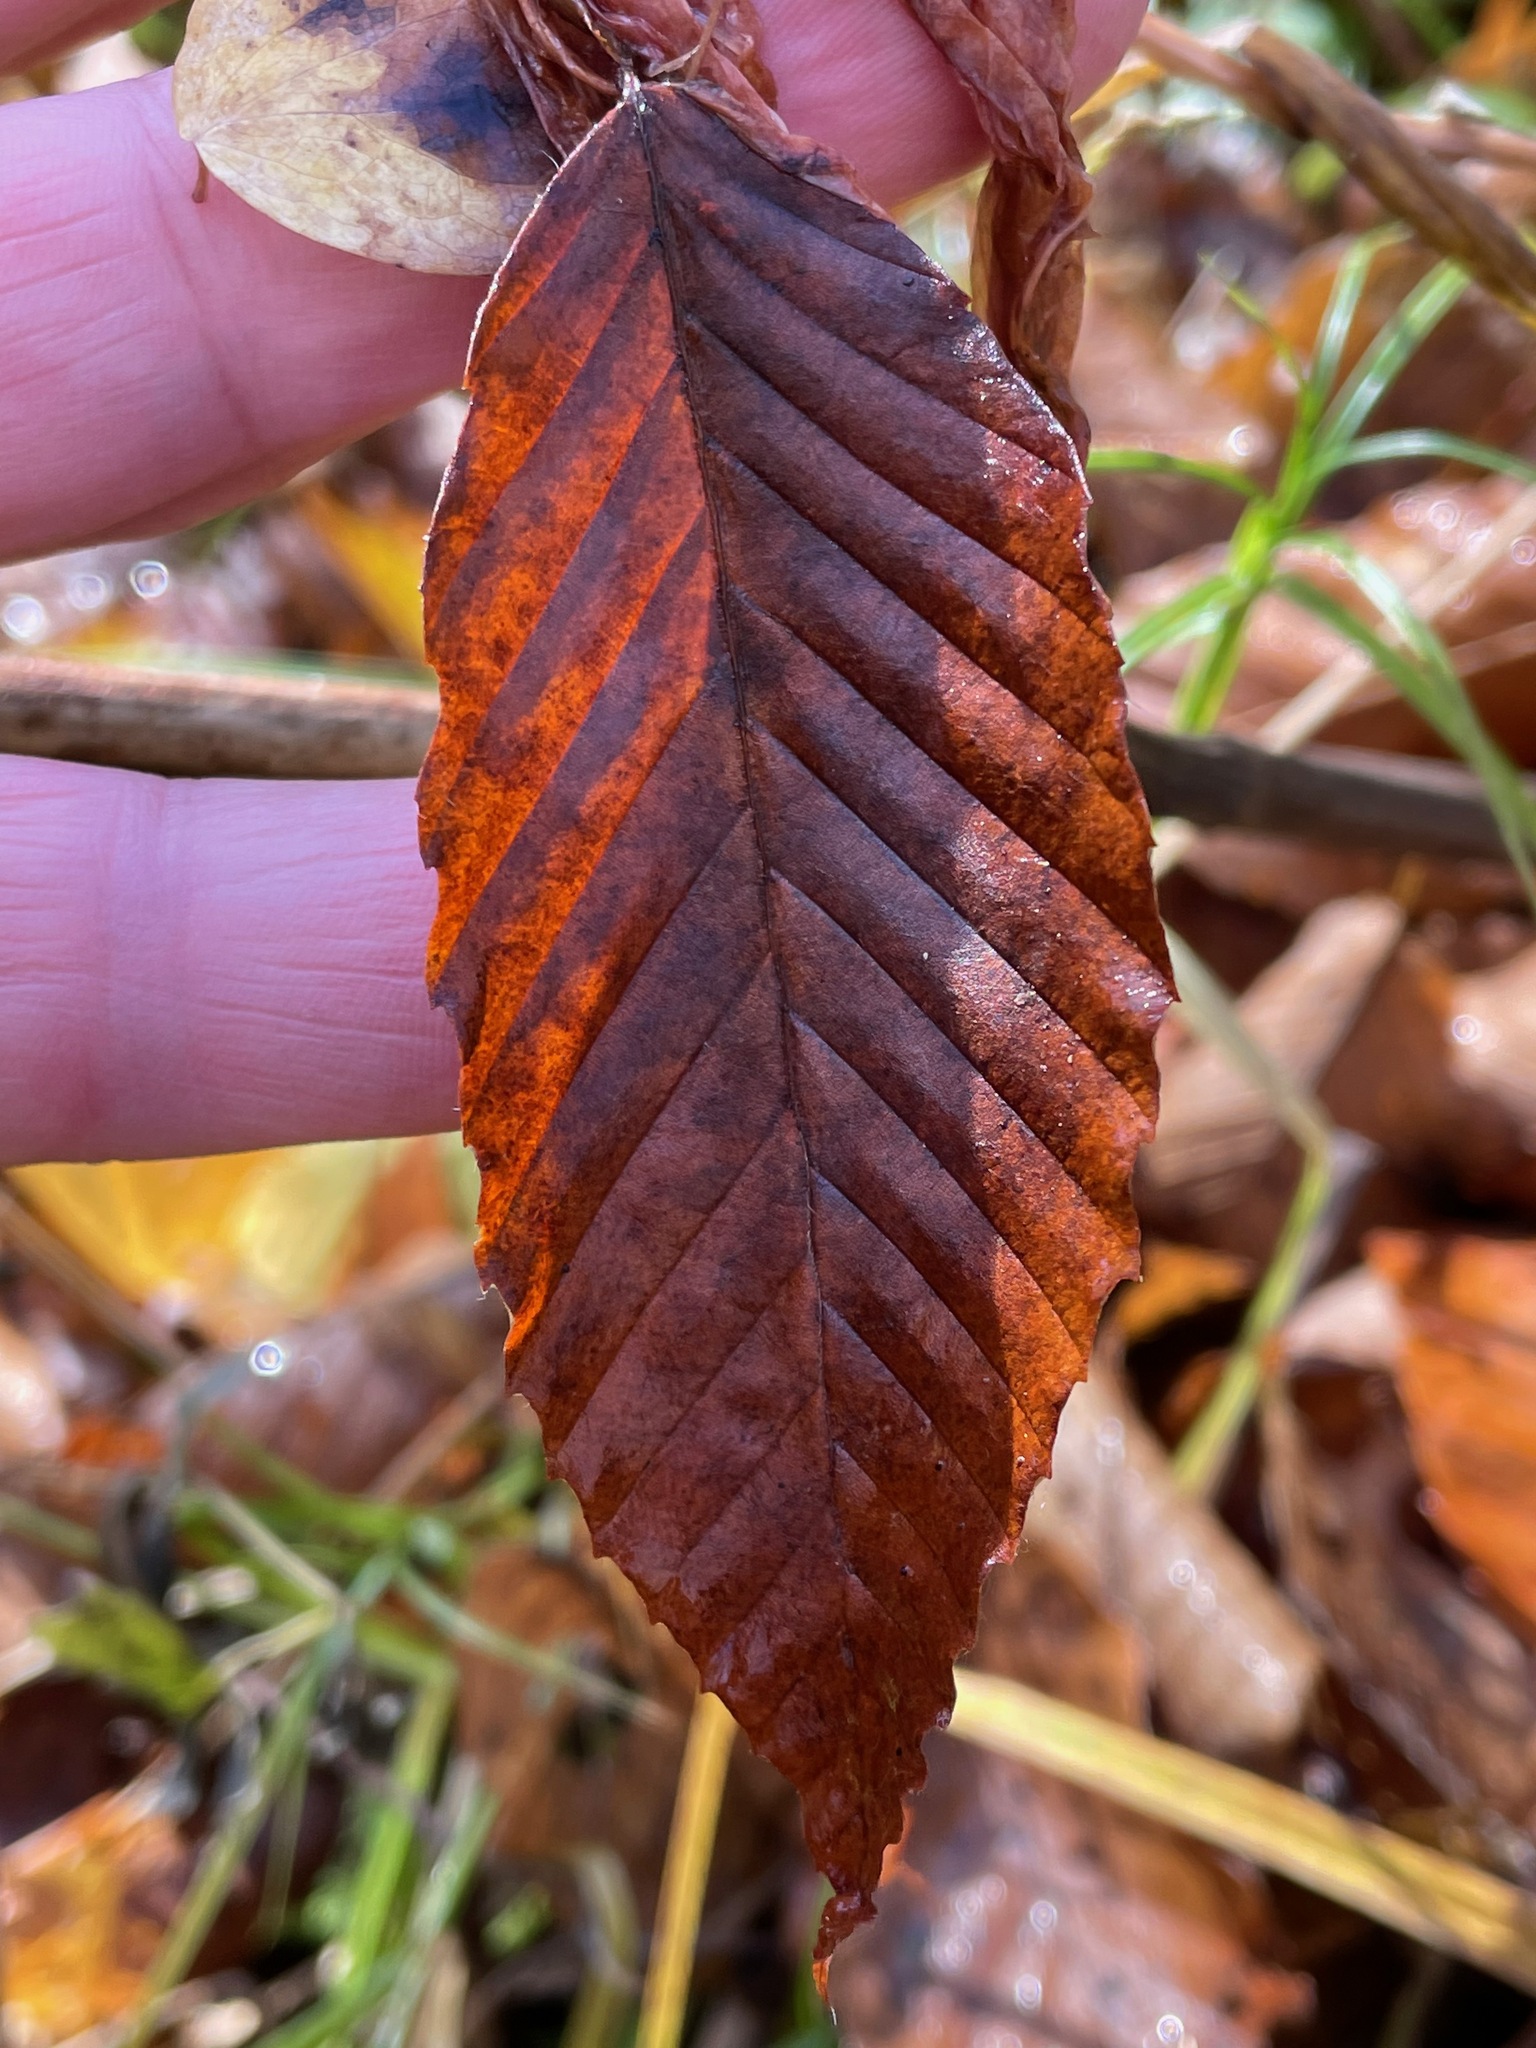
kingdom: Plantae
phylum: Tracheophyta
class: Magnoliopsida
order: Fagales
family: Fagaceae
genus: Fagus
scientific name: Fagus grandifolia
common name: American beech
